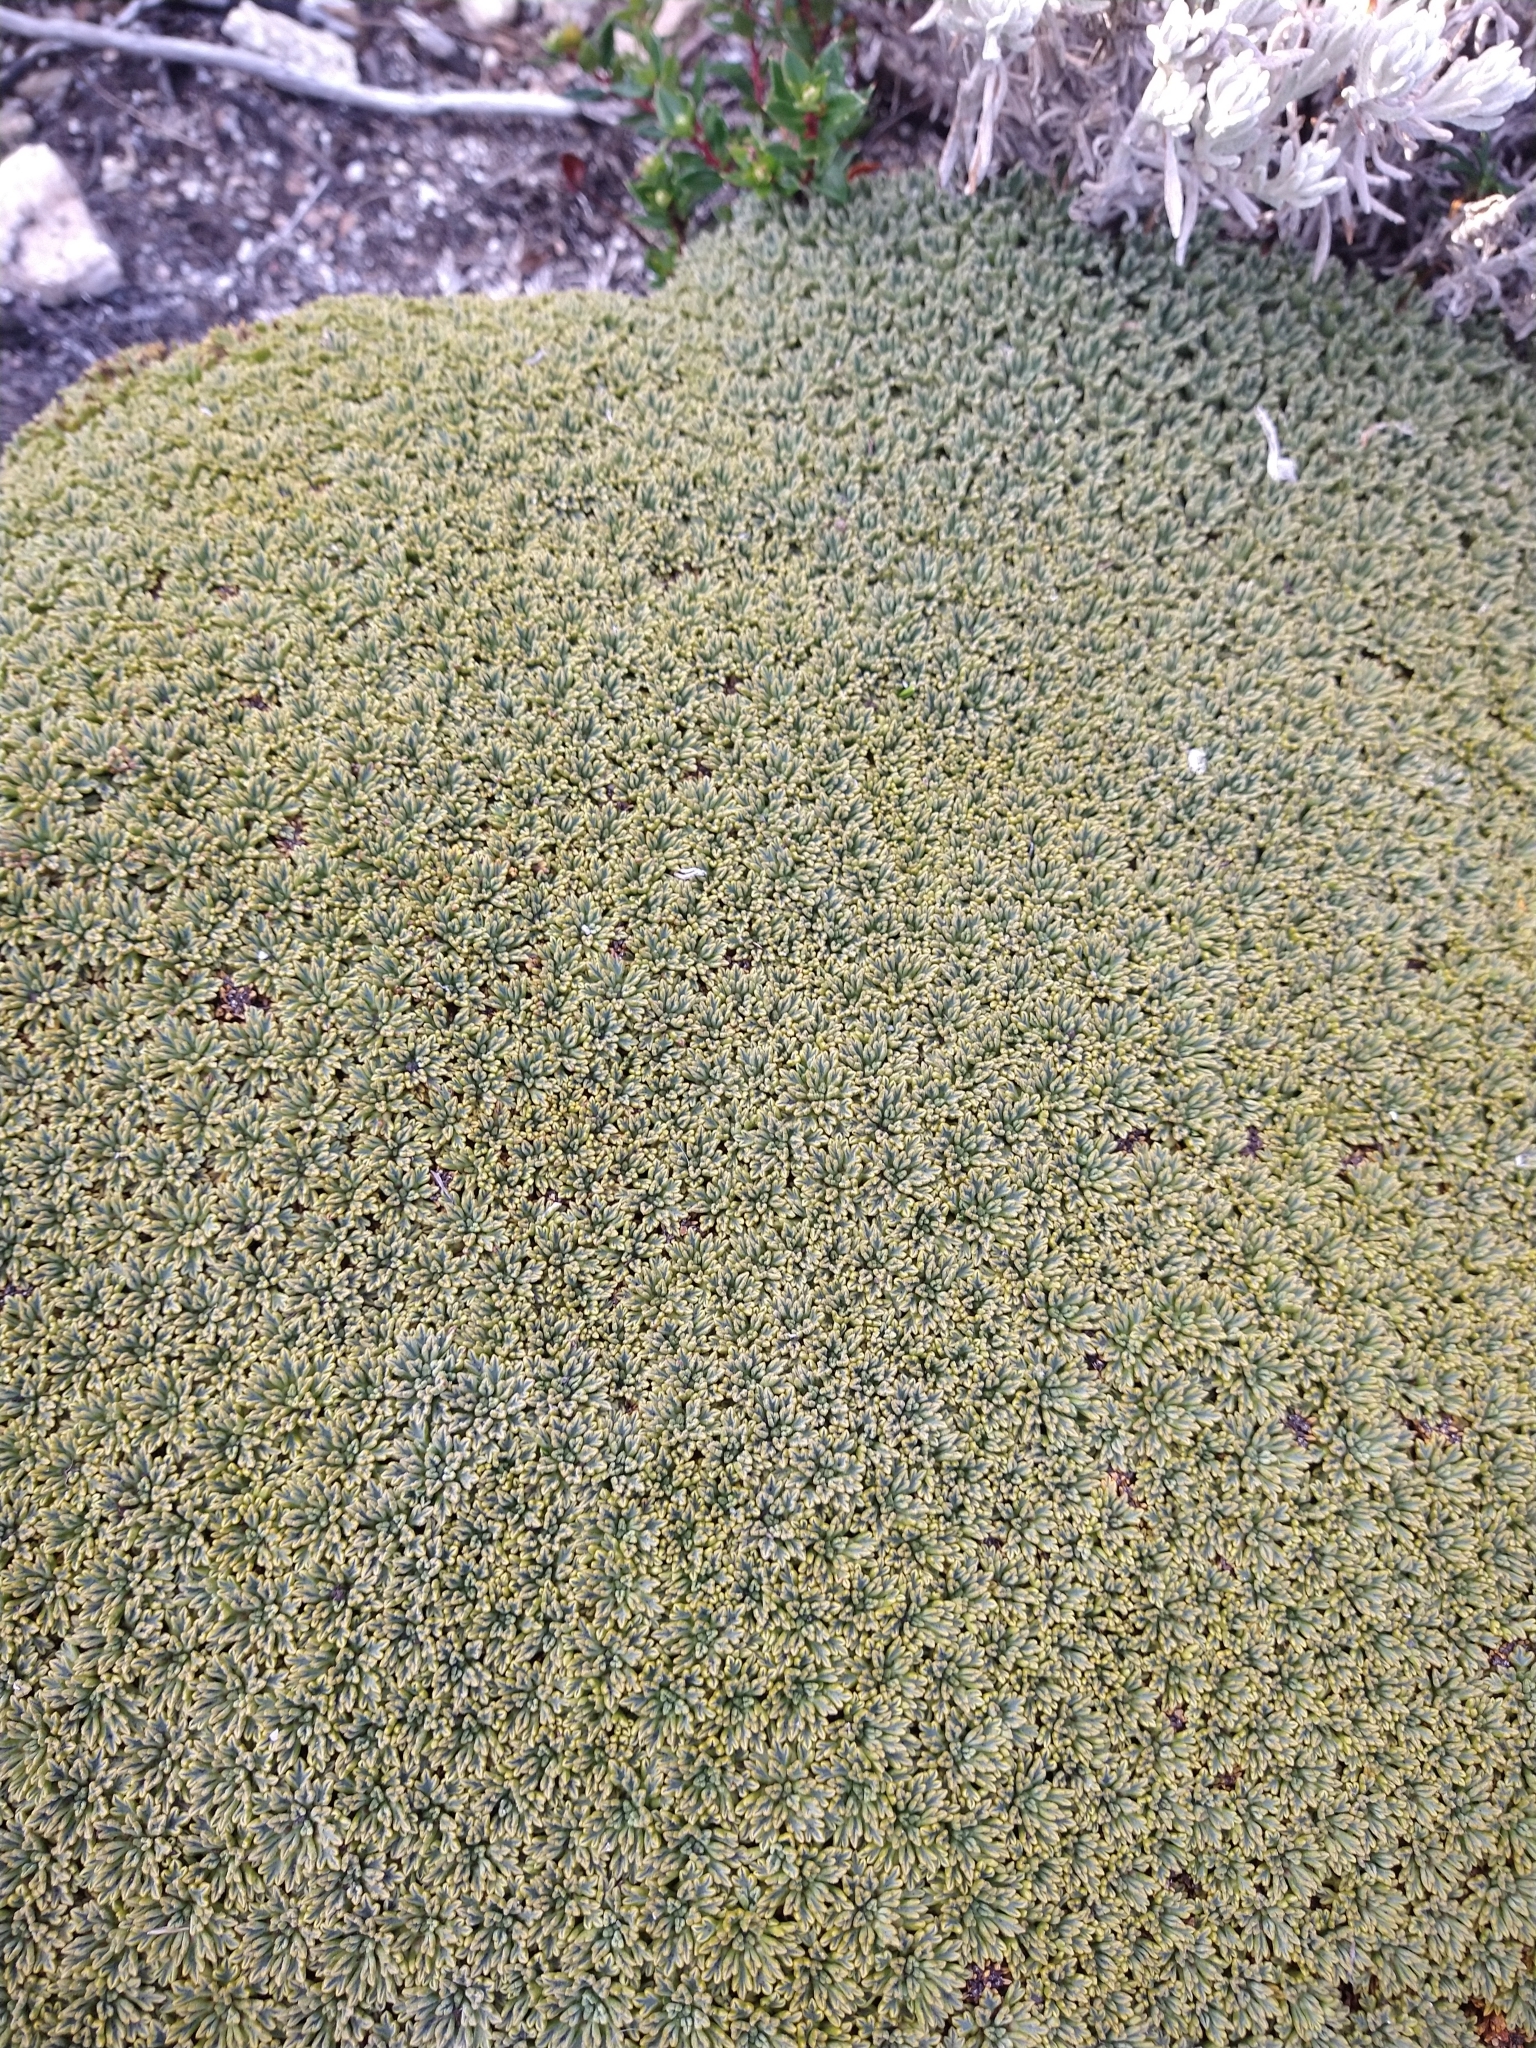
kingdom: Plantae
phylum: Tracheophyta
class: Magnoliopsida
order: Apiales
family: Apiaceae
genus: Bolax
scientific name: Bolax gummifera
